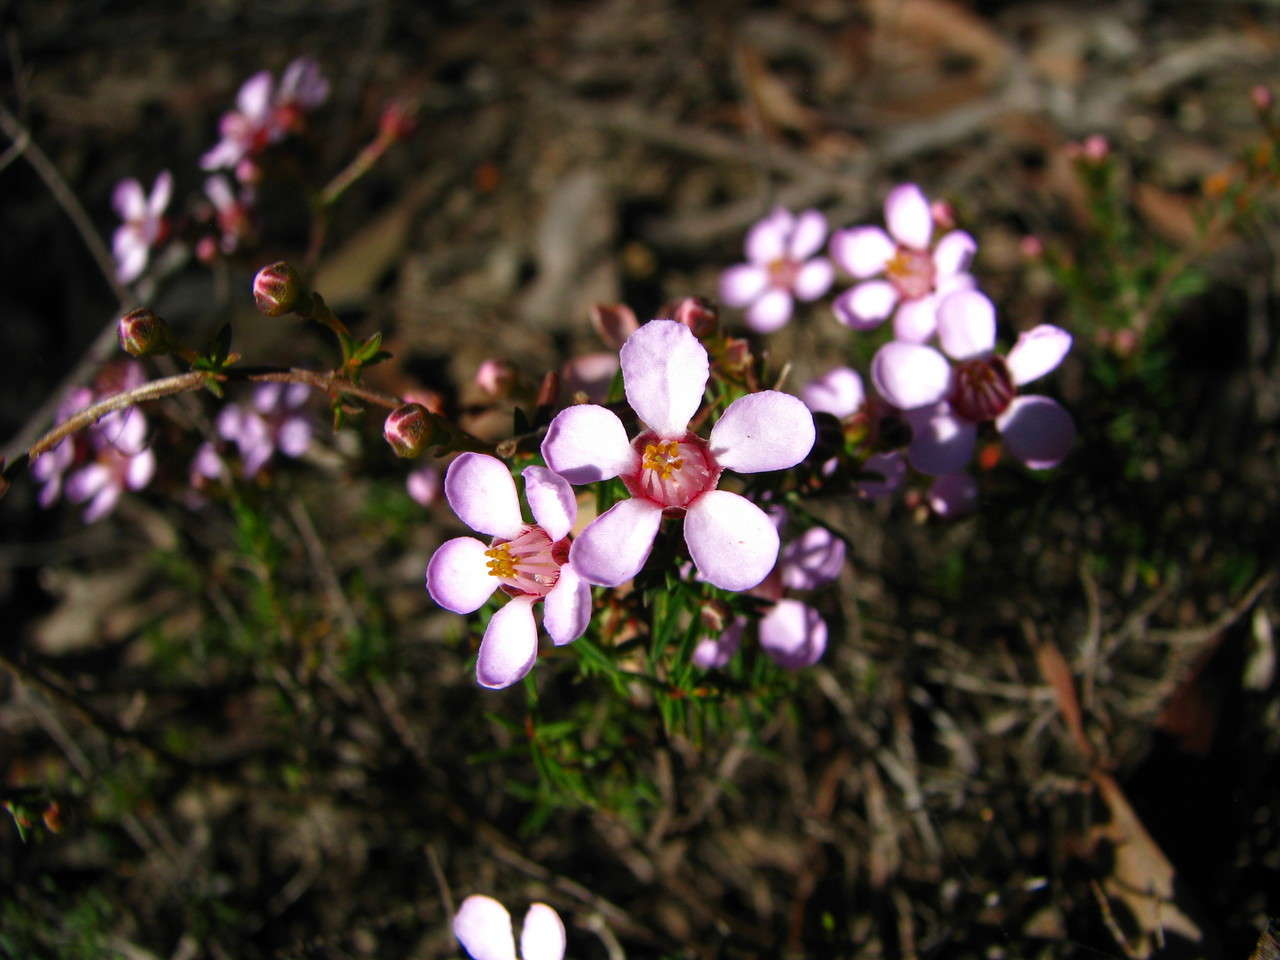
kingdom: Plantae
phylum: Tracheophyta
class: Magnoliopsida
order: Myrtales
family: Myrtaceae
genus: Euryomyrtus
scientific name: Euryomyrtus ramosissima
